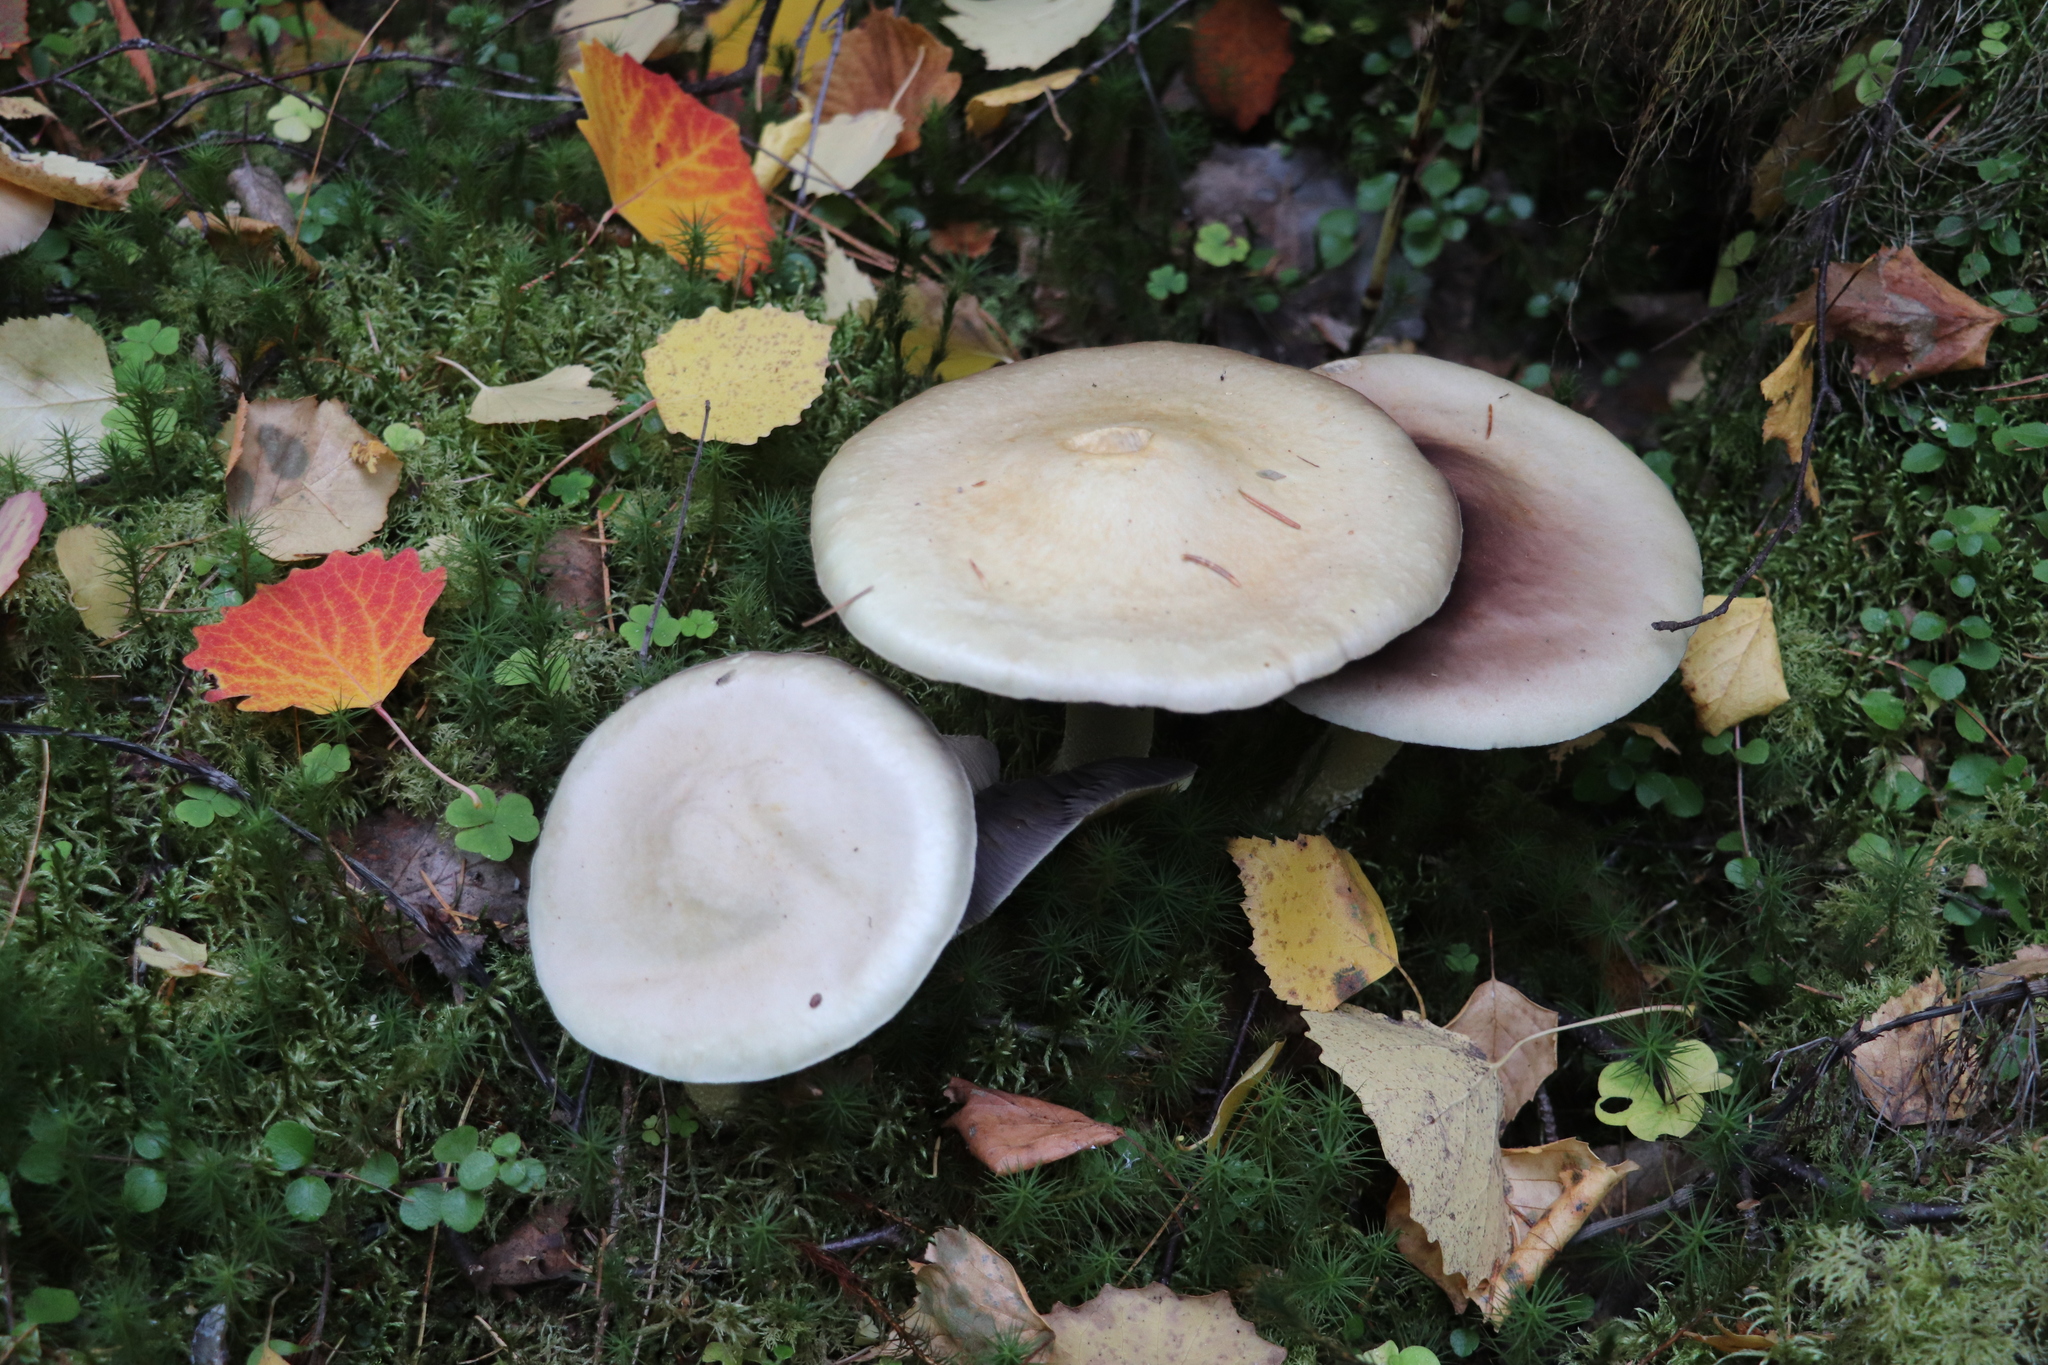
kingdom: Fungi
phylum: Basidiomycota
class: Agaricomycetes
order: Agaricales
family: Agaricaceae
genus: Agaricus
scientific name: Agaricus sylvicola
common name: Wood mushroom
